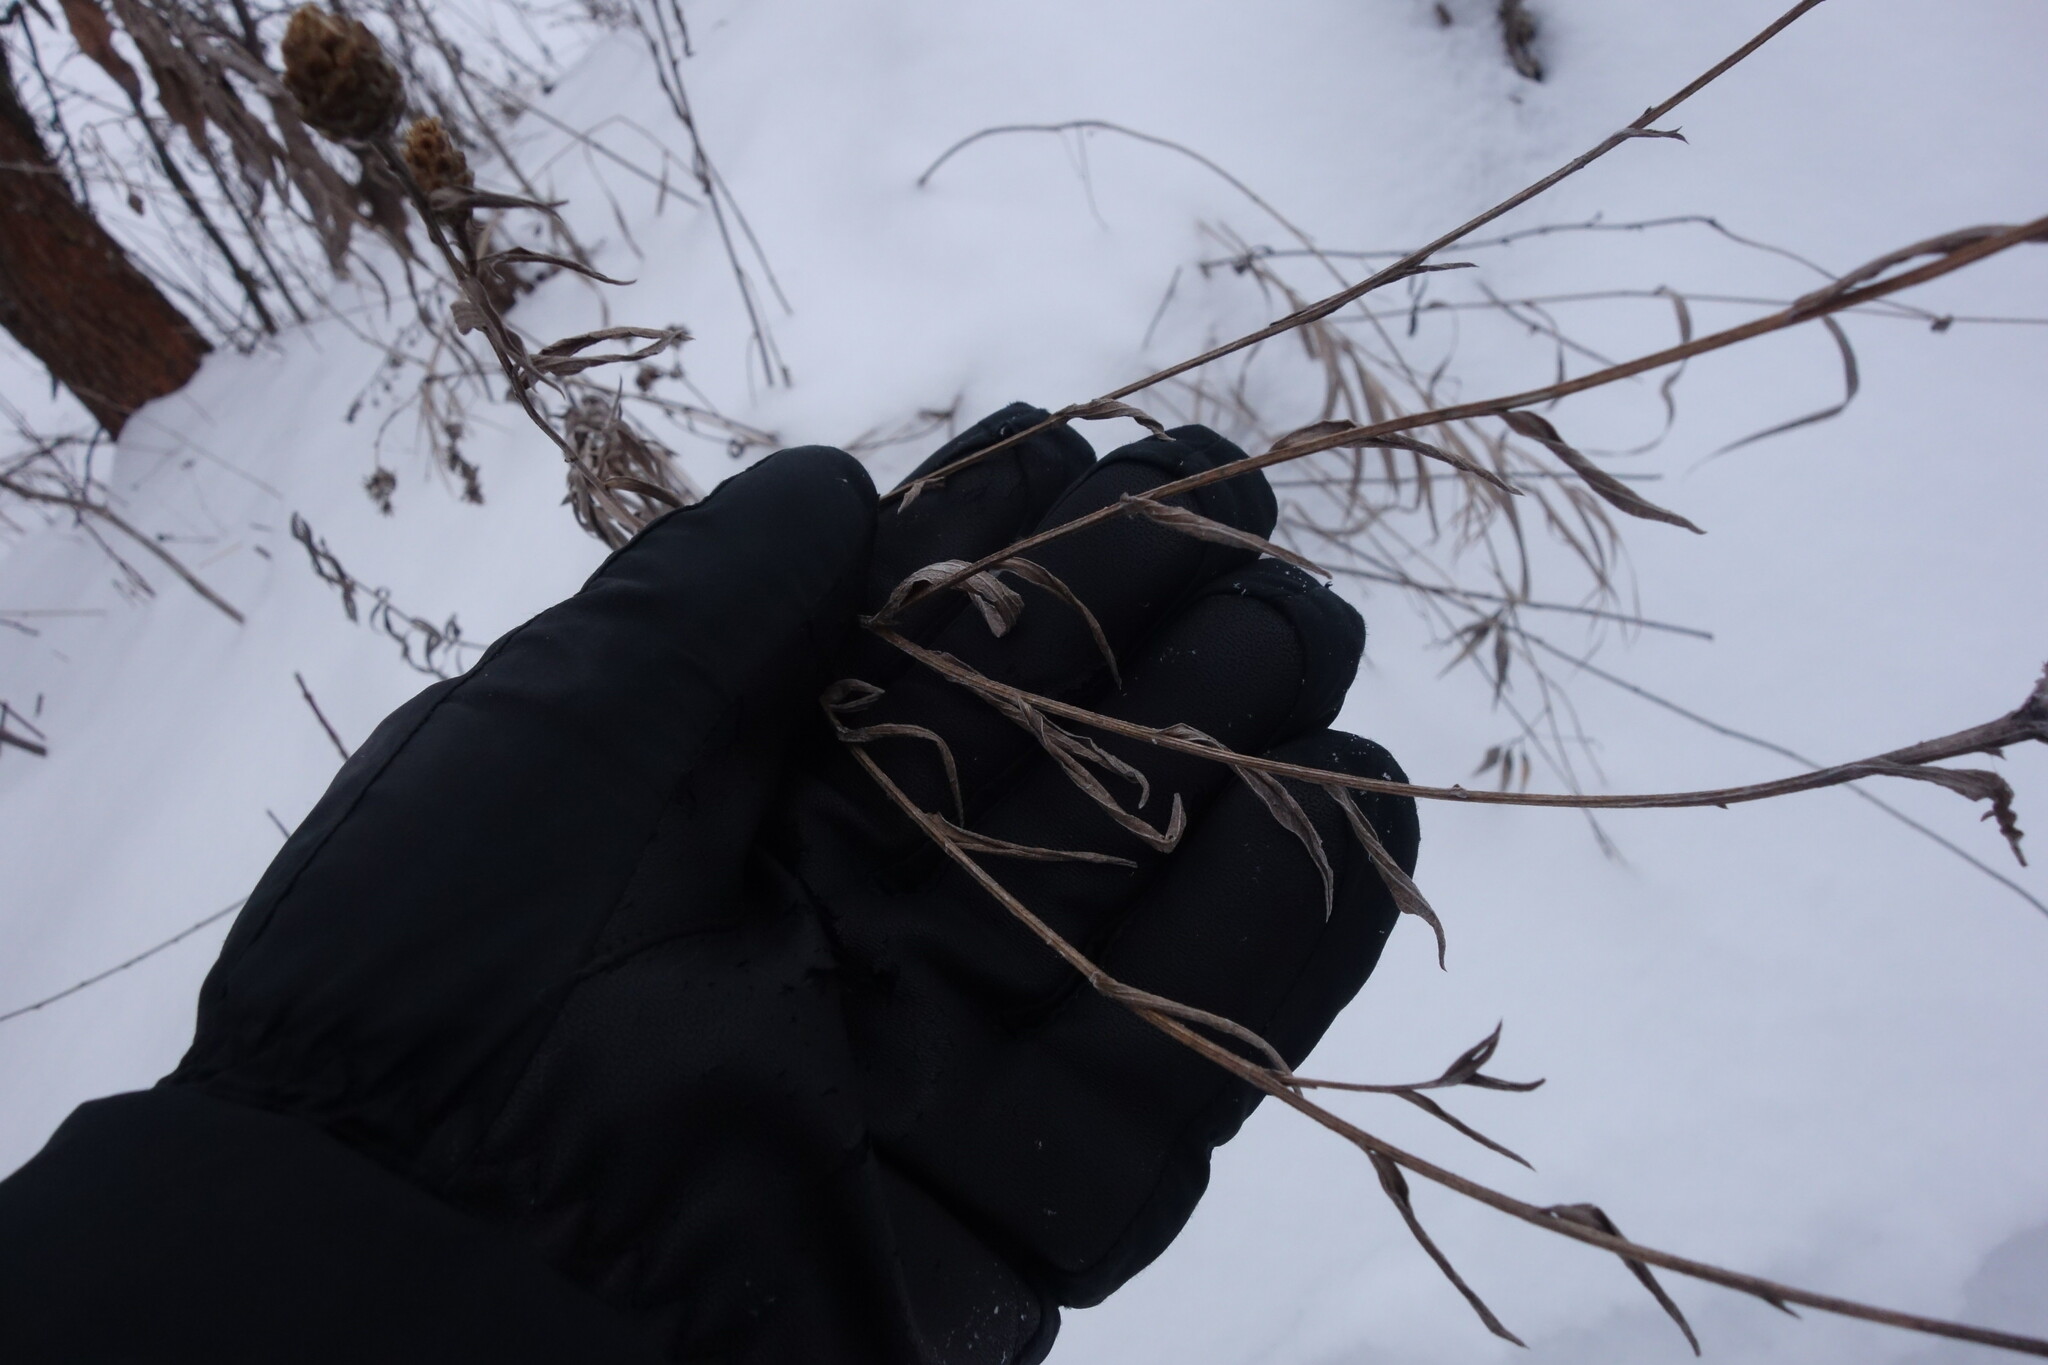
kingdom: Plantae
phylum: Tracheophyta
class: Magnoliopsida
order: Asterales
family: Asteraceae
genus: Centaurea
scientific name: Centaurea jacea
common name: Brown knapweed
